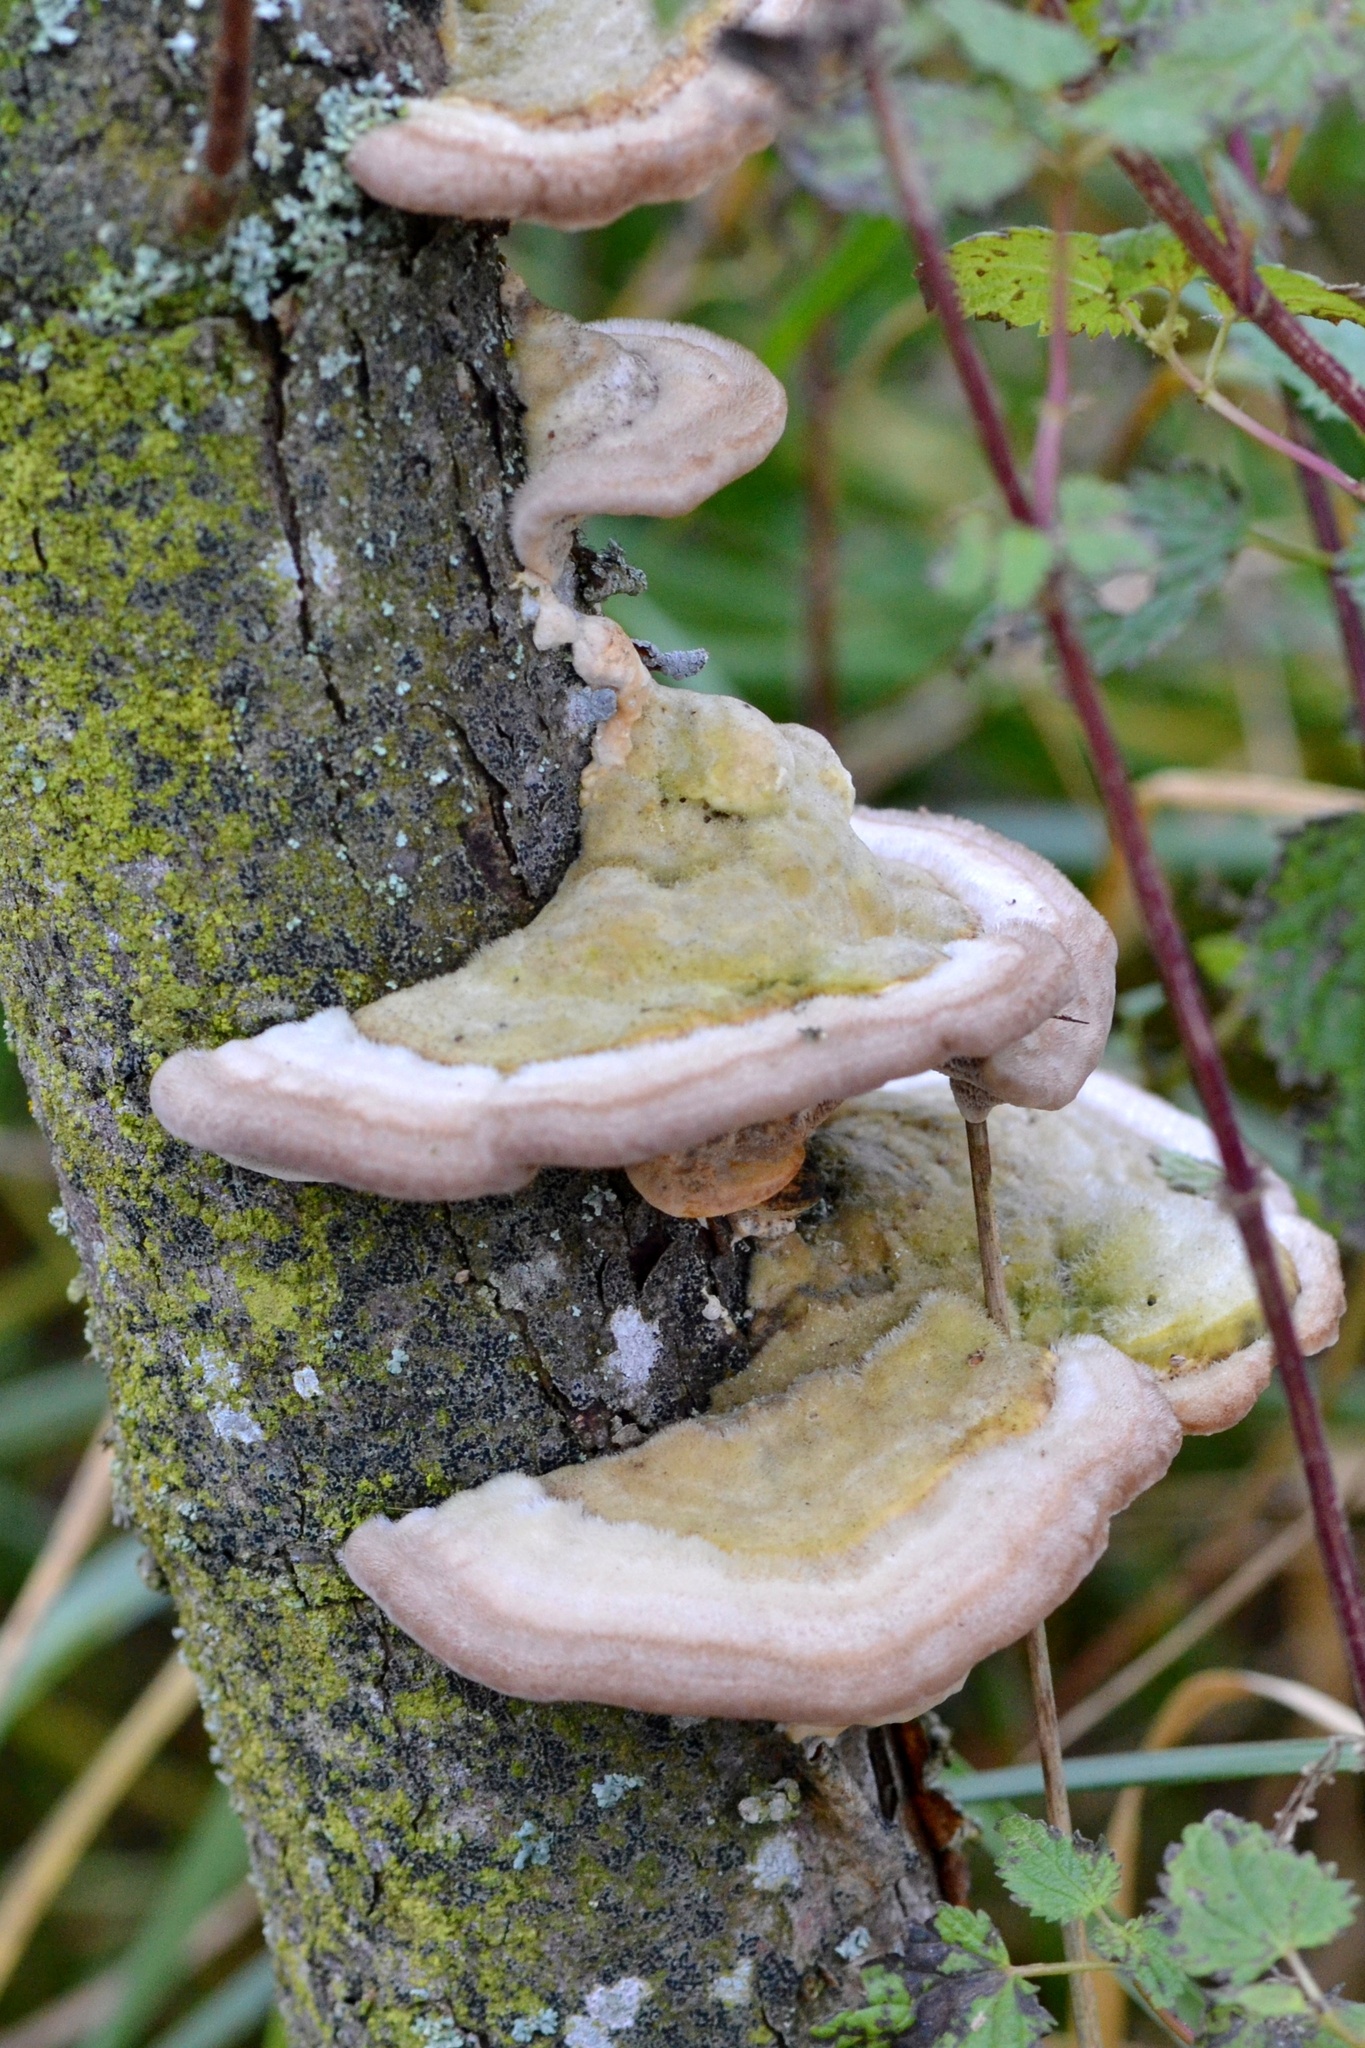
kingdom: Fungi
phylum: Basidiomycota
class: Agaricomycetes
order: Polyporales
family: Polyporaceae
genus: Trametes
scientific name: Trametes hirsuta
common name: Hairy bracket
